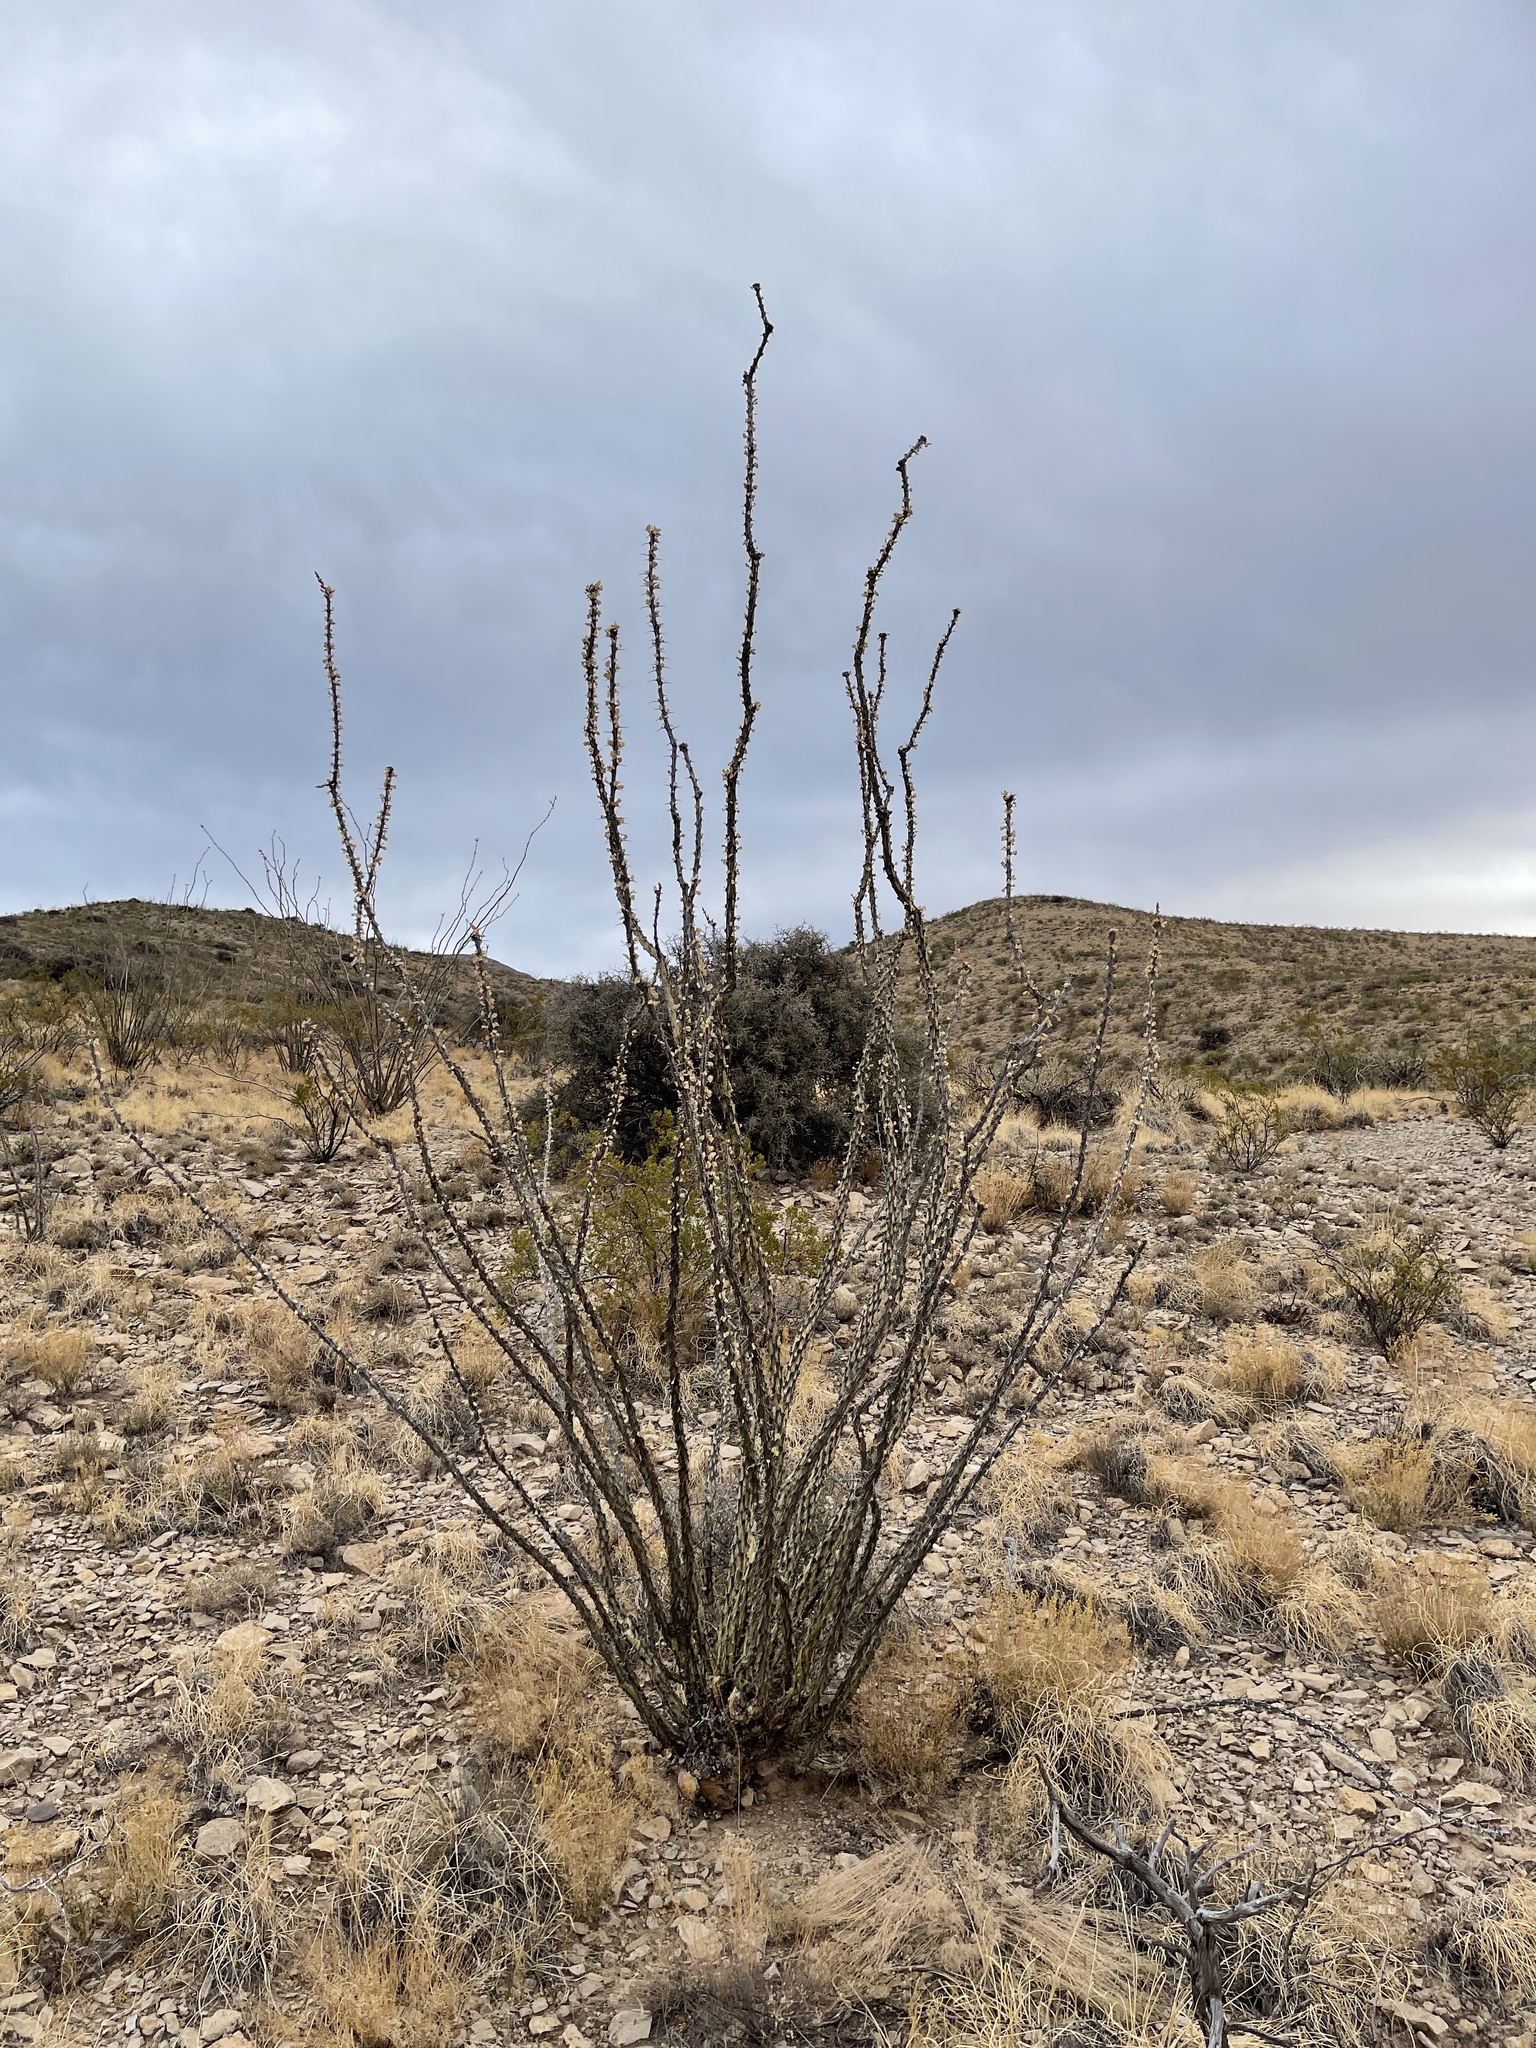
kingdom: Plantae
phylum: Tracheophyta
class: Magnoliopsida
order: Ericales
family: Fouquieriaceae
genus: Fouquieria
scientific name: Fouquieria splendens
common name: Vine-cactus
